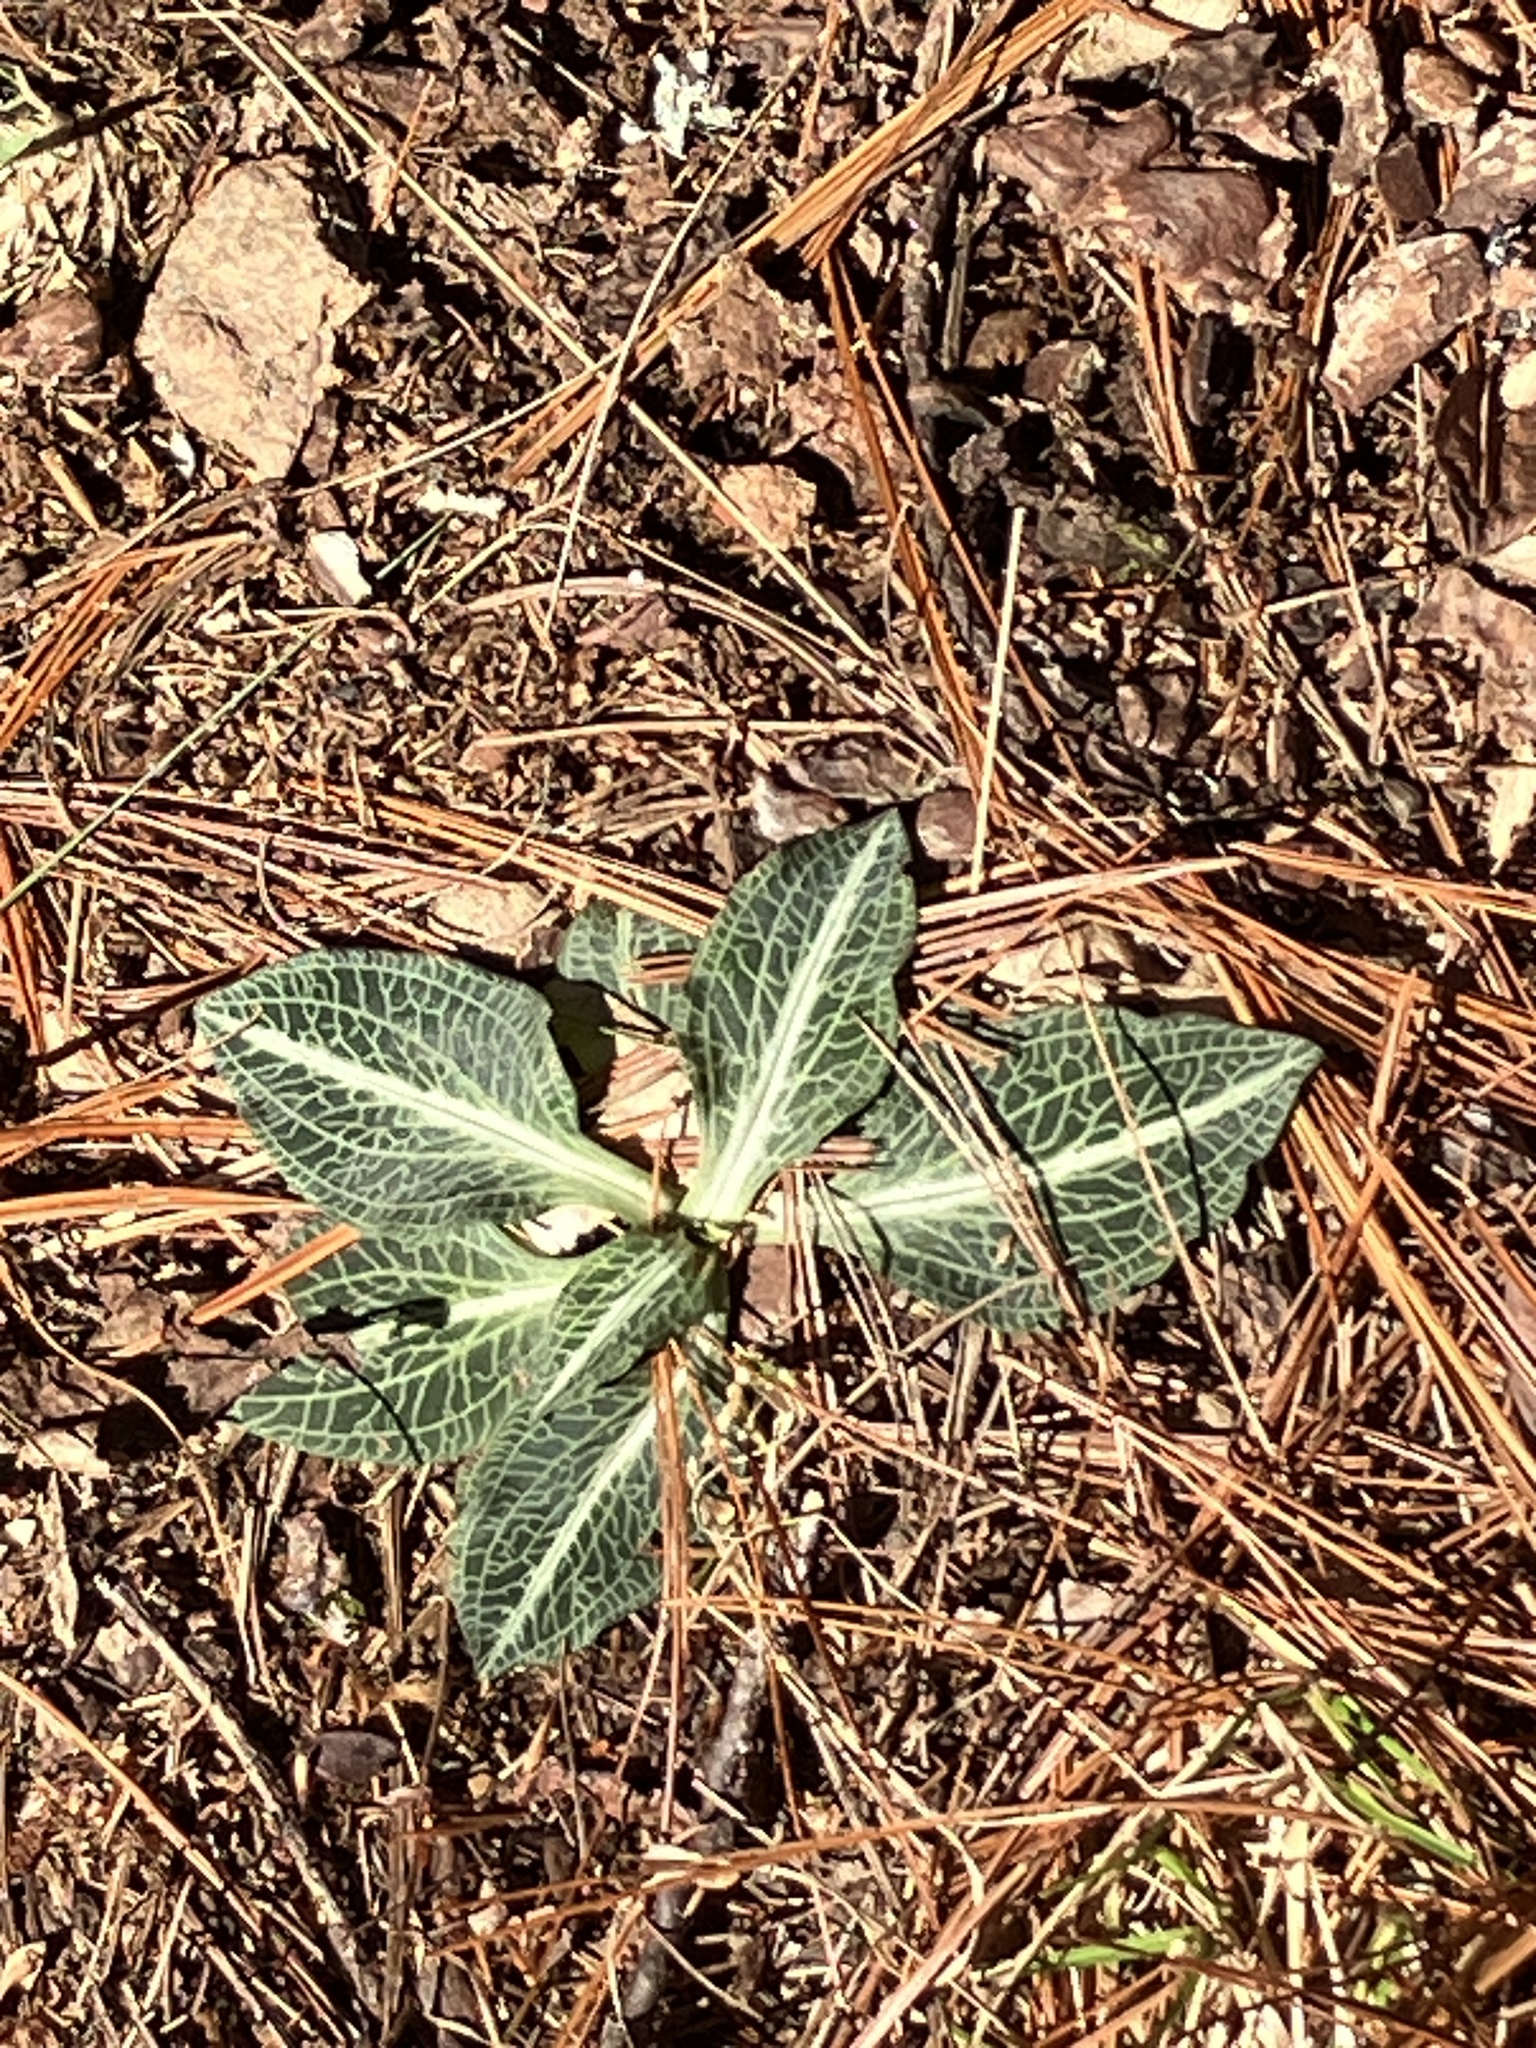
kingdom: Plantae
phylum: Tracheophyta
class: Liliopsida
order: Asparagales
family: Orchidaceae
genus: Goodyera
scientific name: Goodyera pubescens
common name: Downy rattlesnake-plantain
